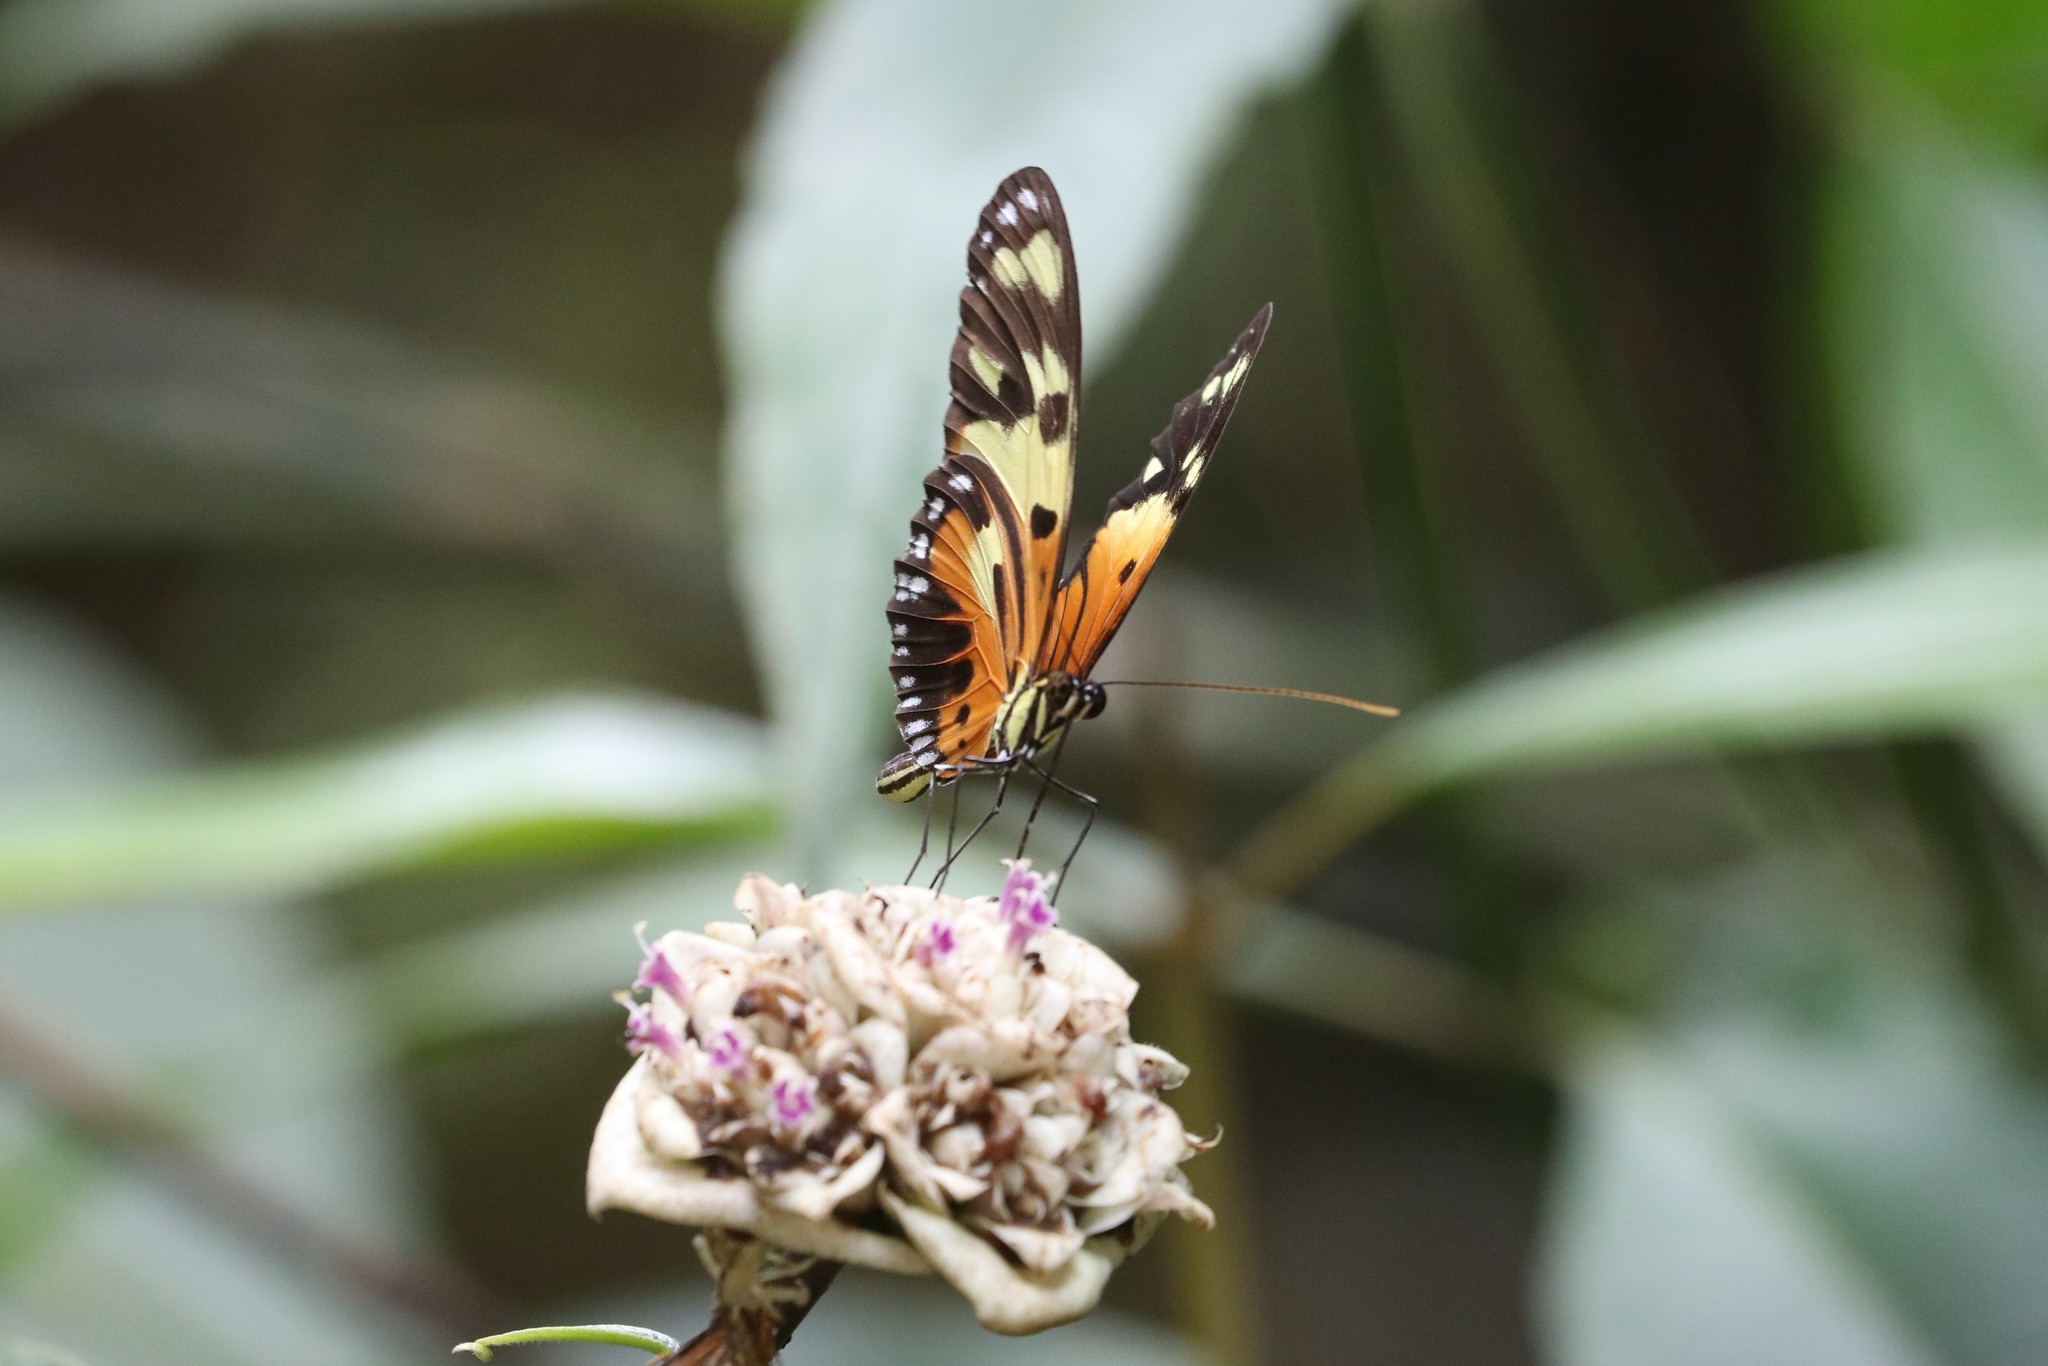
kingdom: Animalia
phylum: Arthropoda
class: Insecta
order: Lepidoptera
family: Nymphalidae
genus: Heliconius
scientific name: Heliconius numatus
